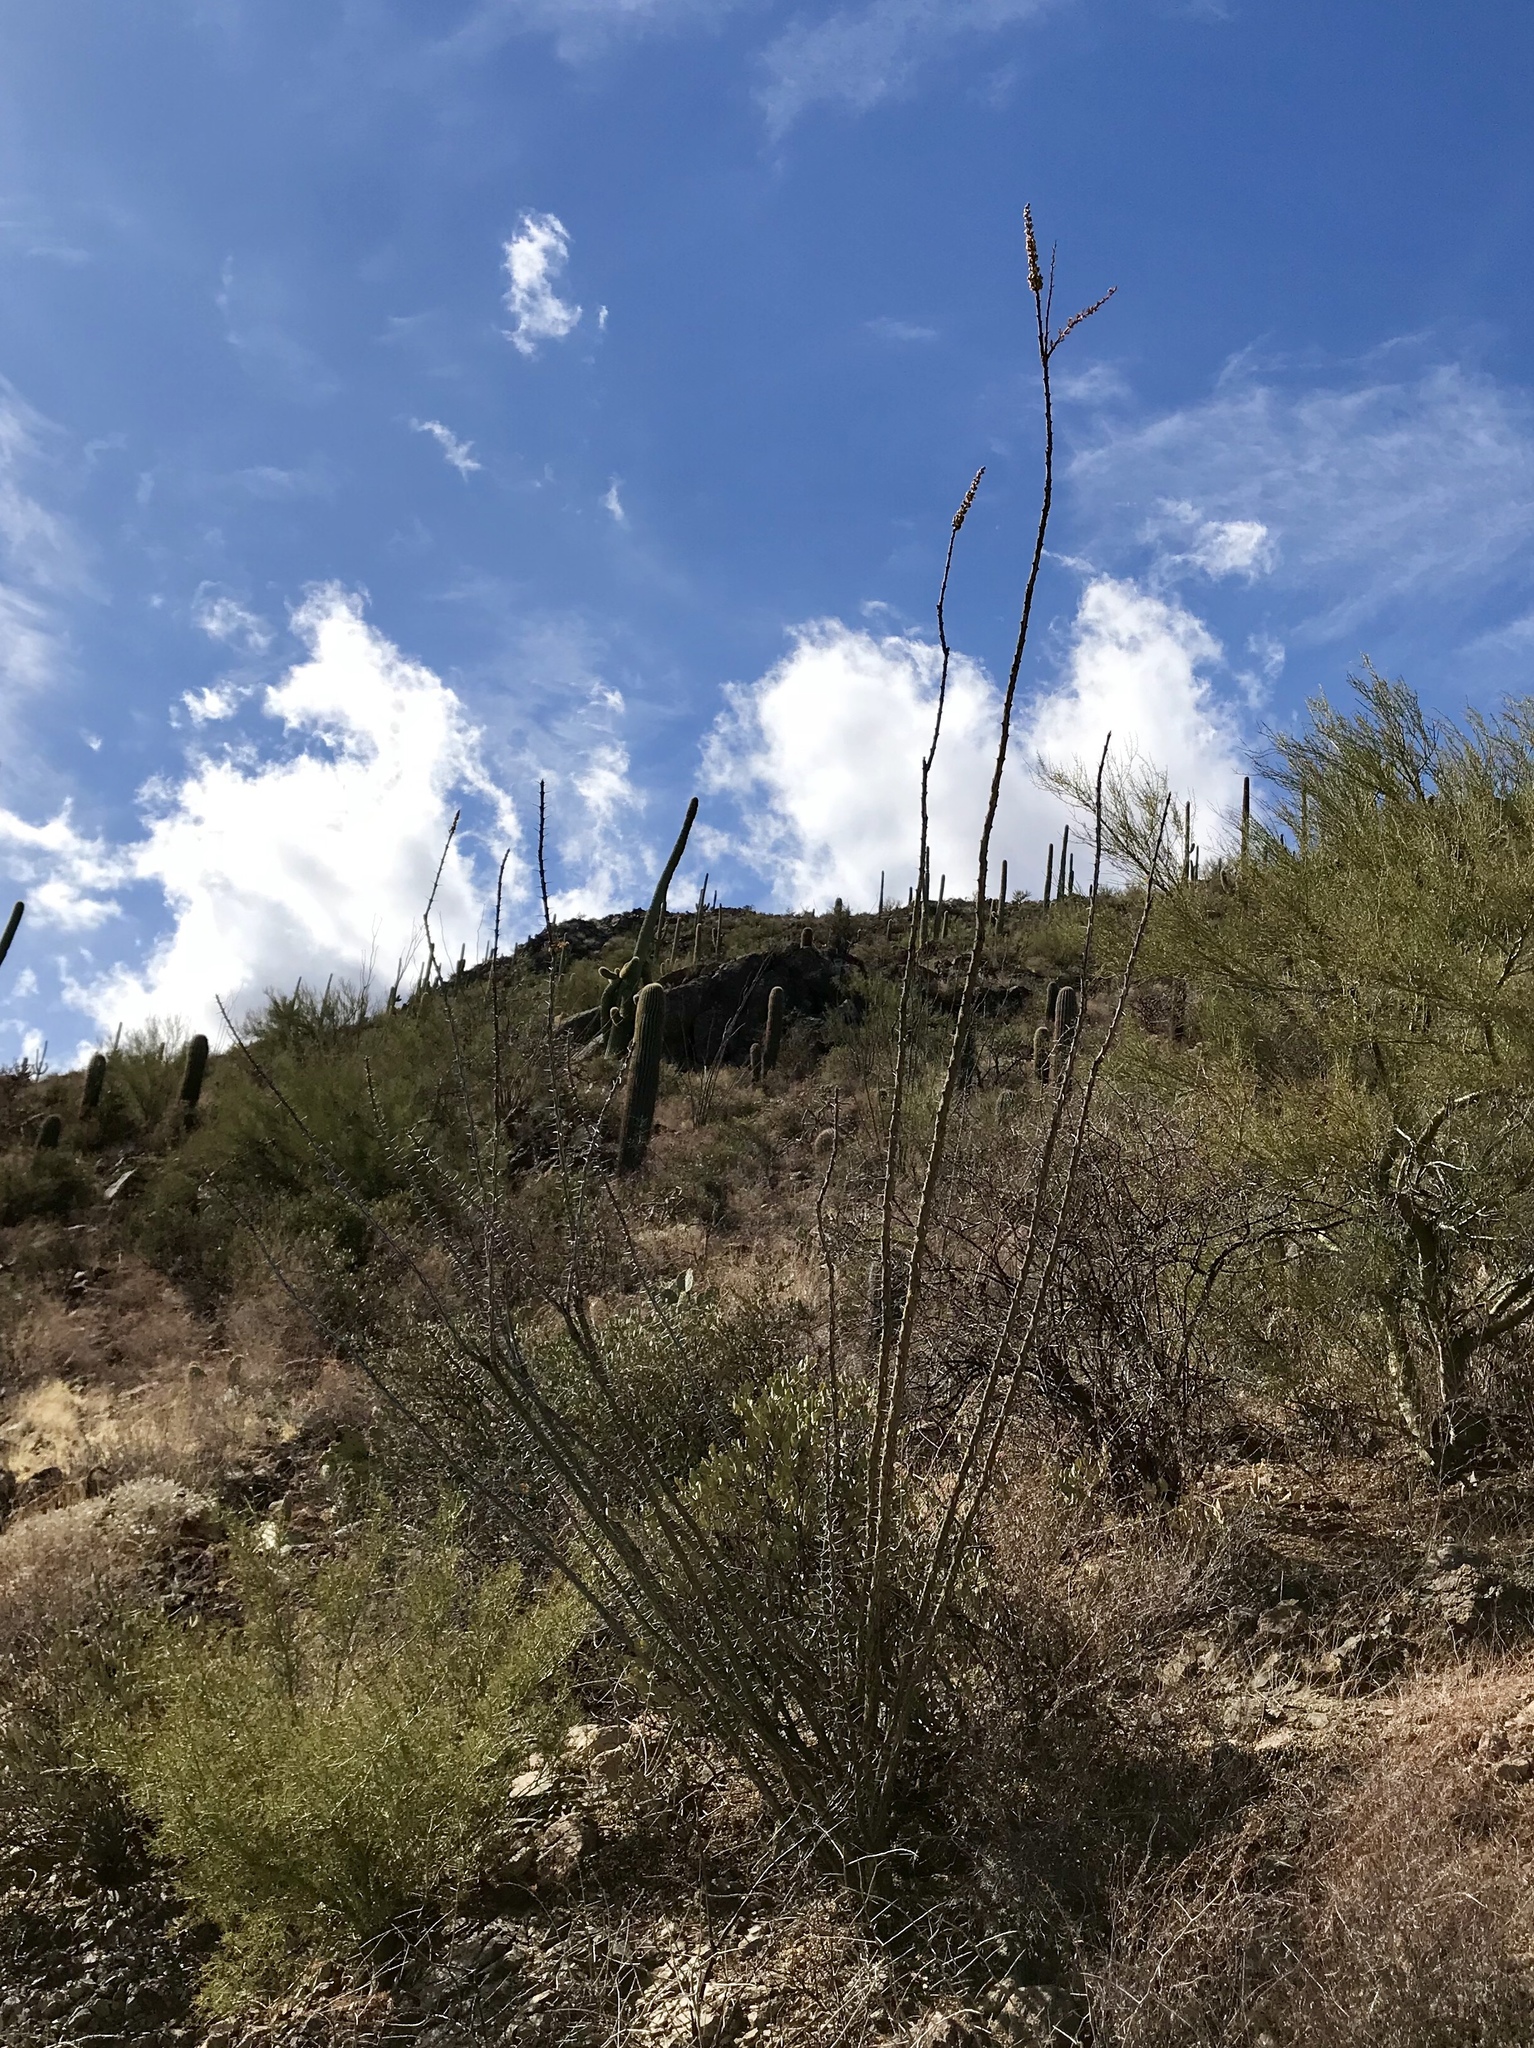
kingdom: Plantae
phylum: Tracheophyta
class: Magnoliopsida
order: Ericales
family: Fouquieriaceae
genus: Fouquieria
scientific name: Fouquieria splendens
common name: Vine-cactus
